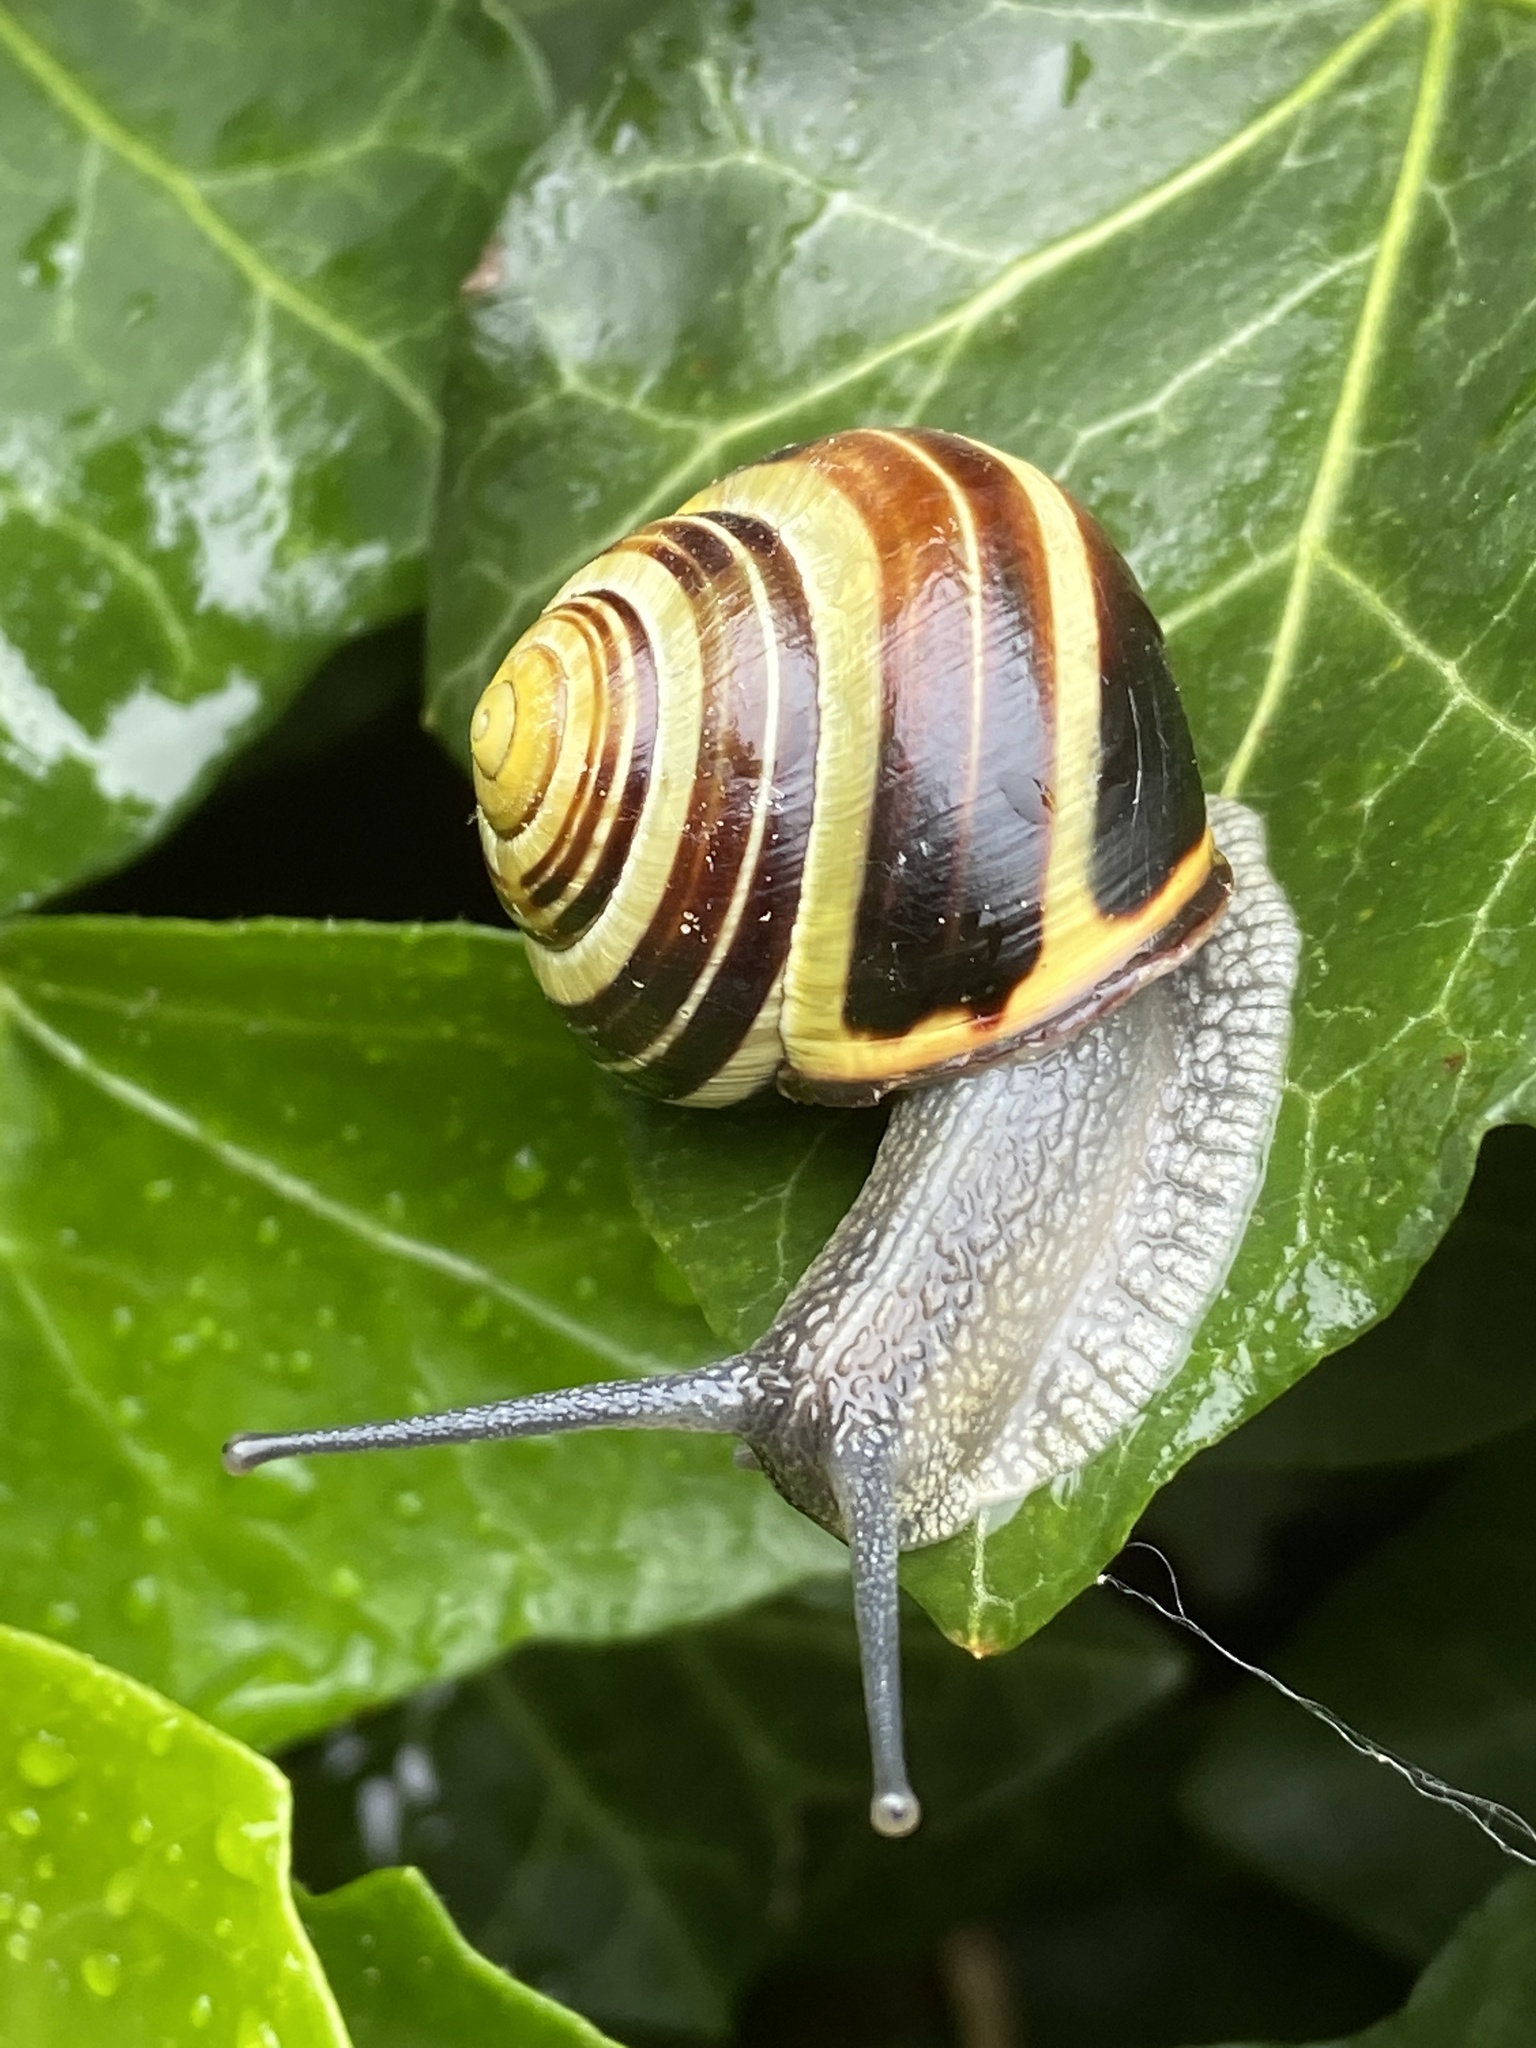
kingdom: Animalia
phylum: Mollusca
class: Gastropoda
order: Stylommatophora
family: Helicidae
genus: Cepaea
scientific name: Cepaea nemoralis
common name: Grovesnail
